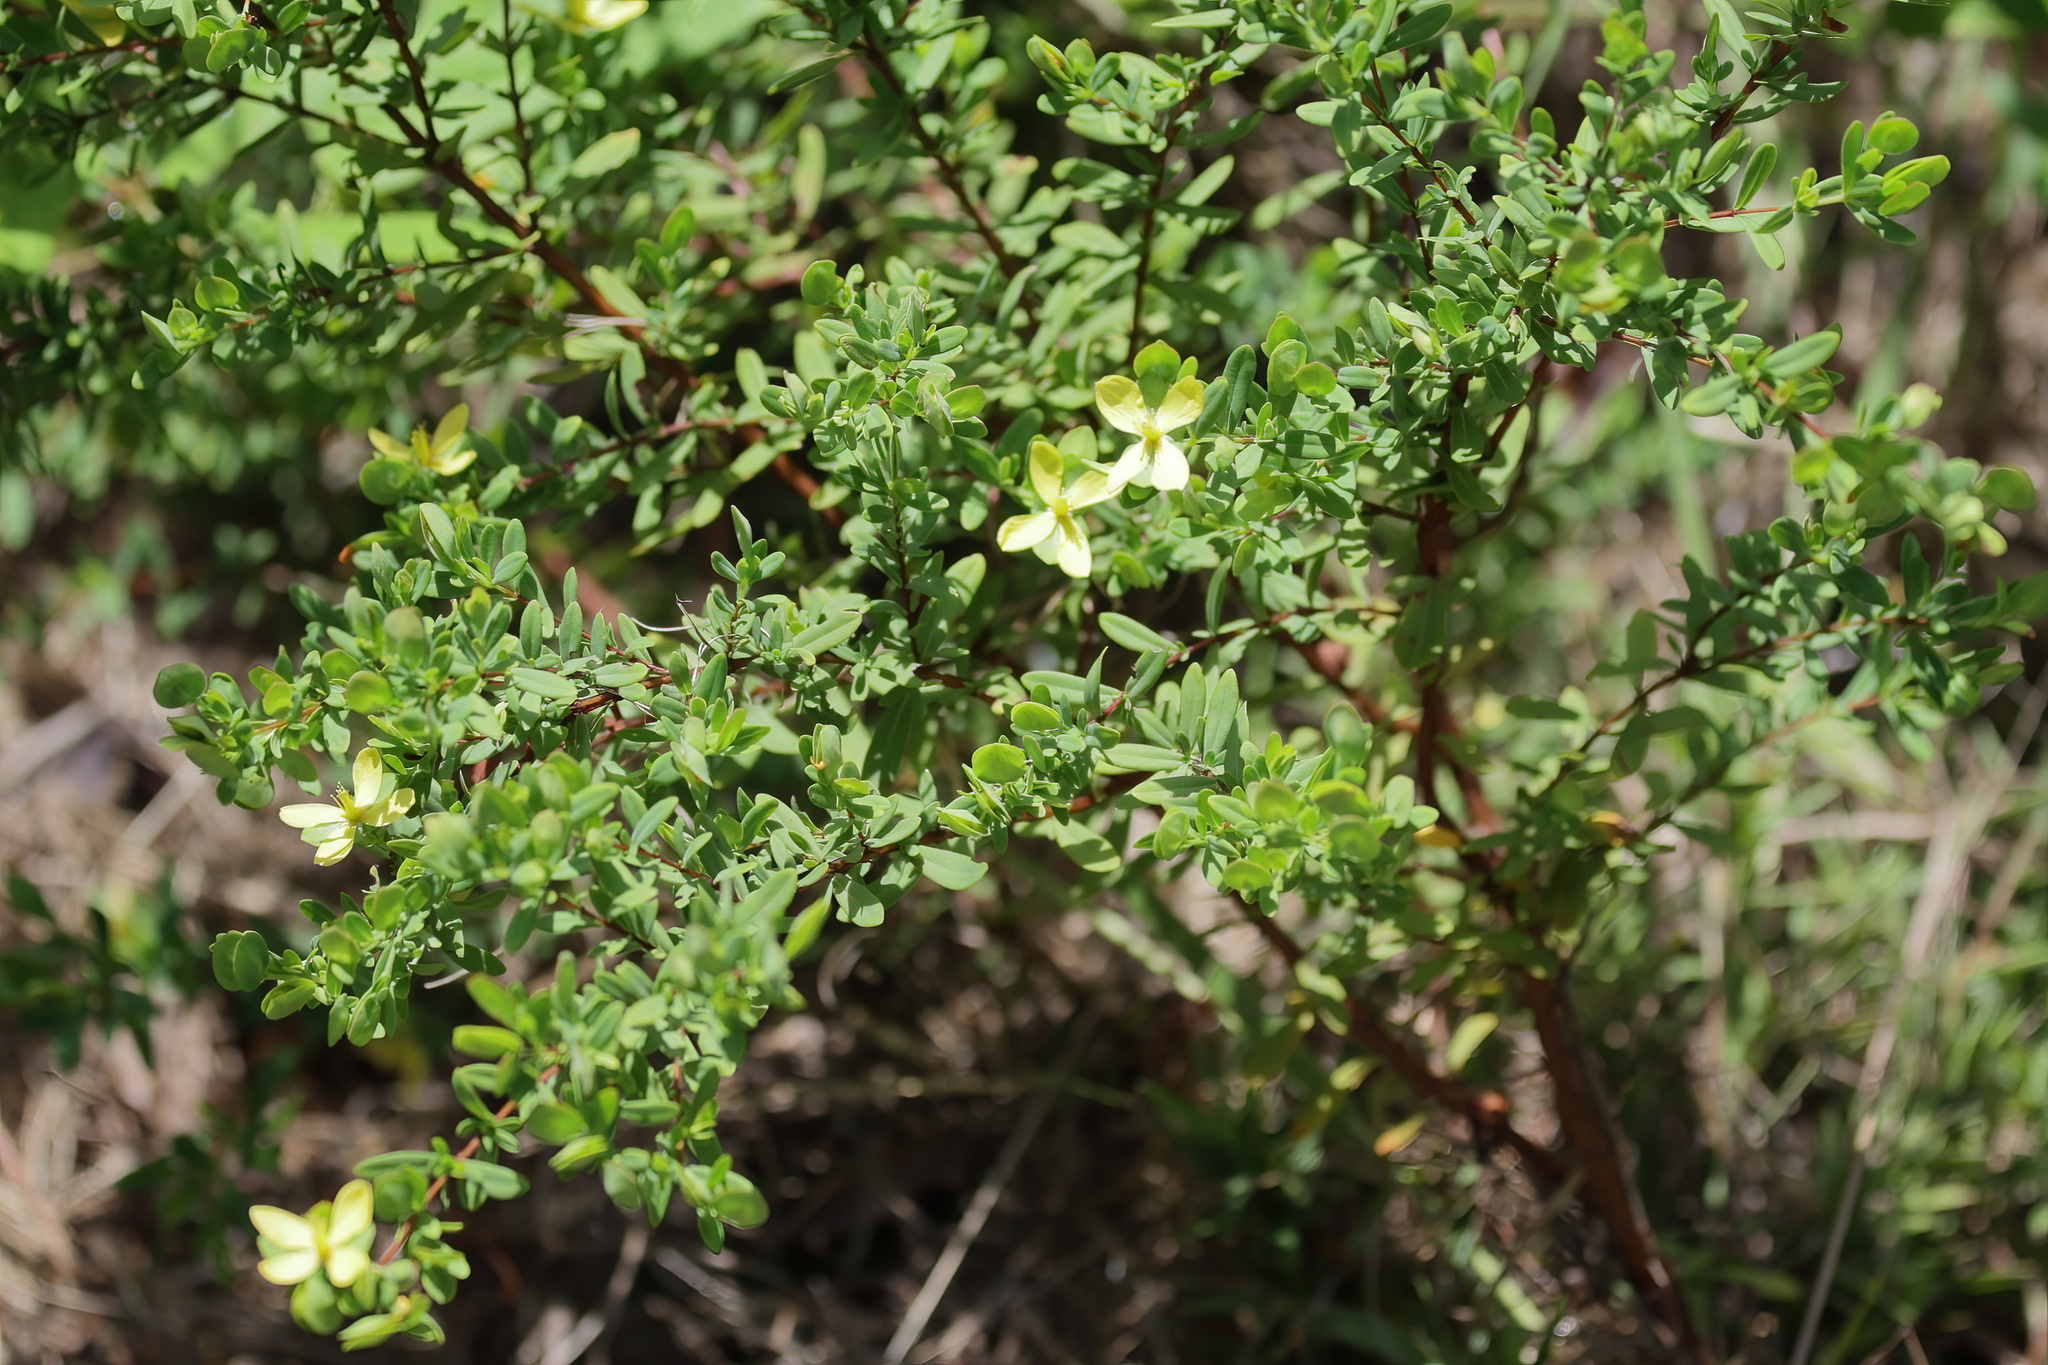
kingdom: Plantae
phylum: Tracheophyta
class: Magnoliopsida
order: Malpighiales
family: Hypericaceae
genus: Hypericum
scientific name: Hypericum hypericoides
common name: St. andrew's cross
